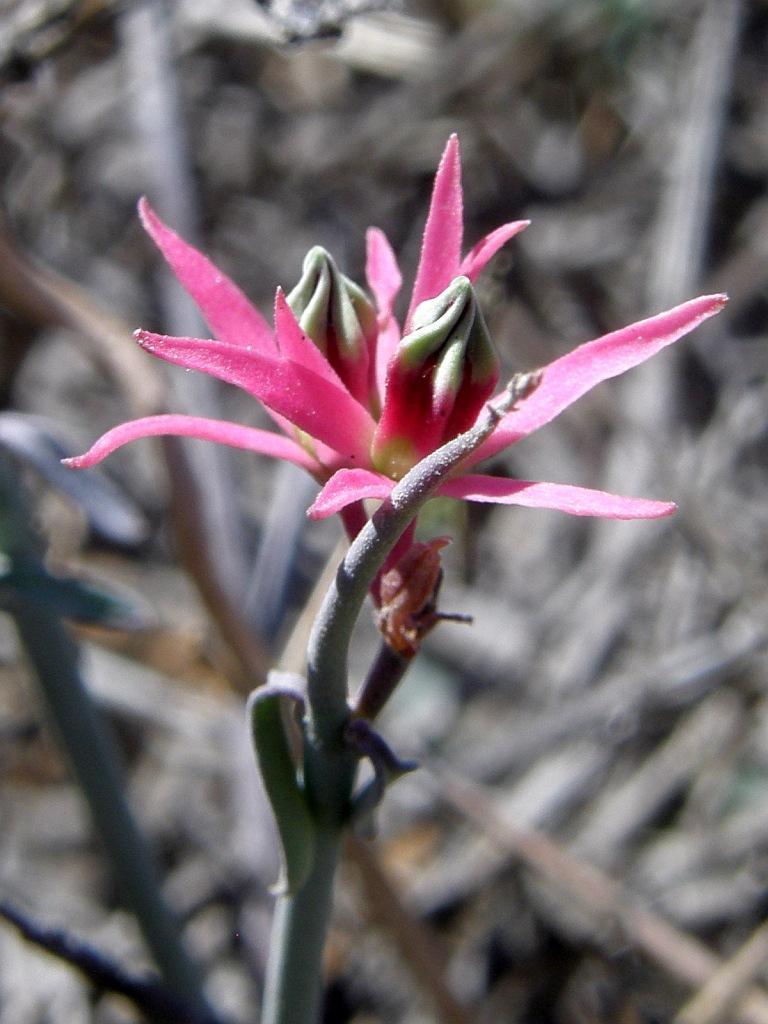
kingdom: Plantae
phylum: Tracheophyta
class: Magnoliopsida
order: Gentianales
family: Apocynaceae
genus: Microloma
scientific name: Microloma calycinum
